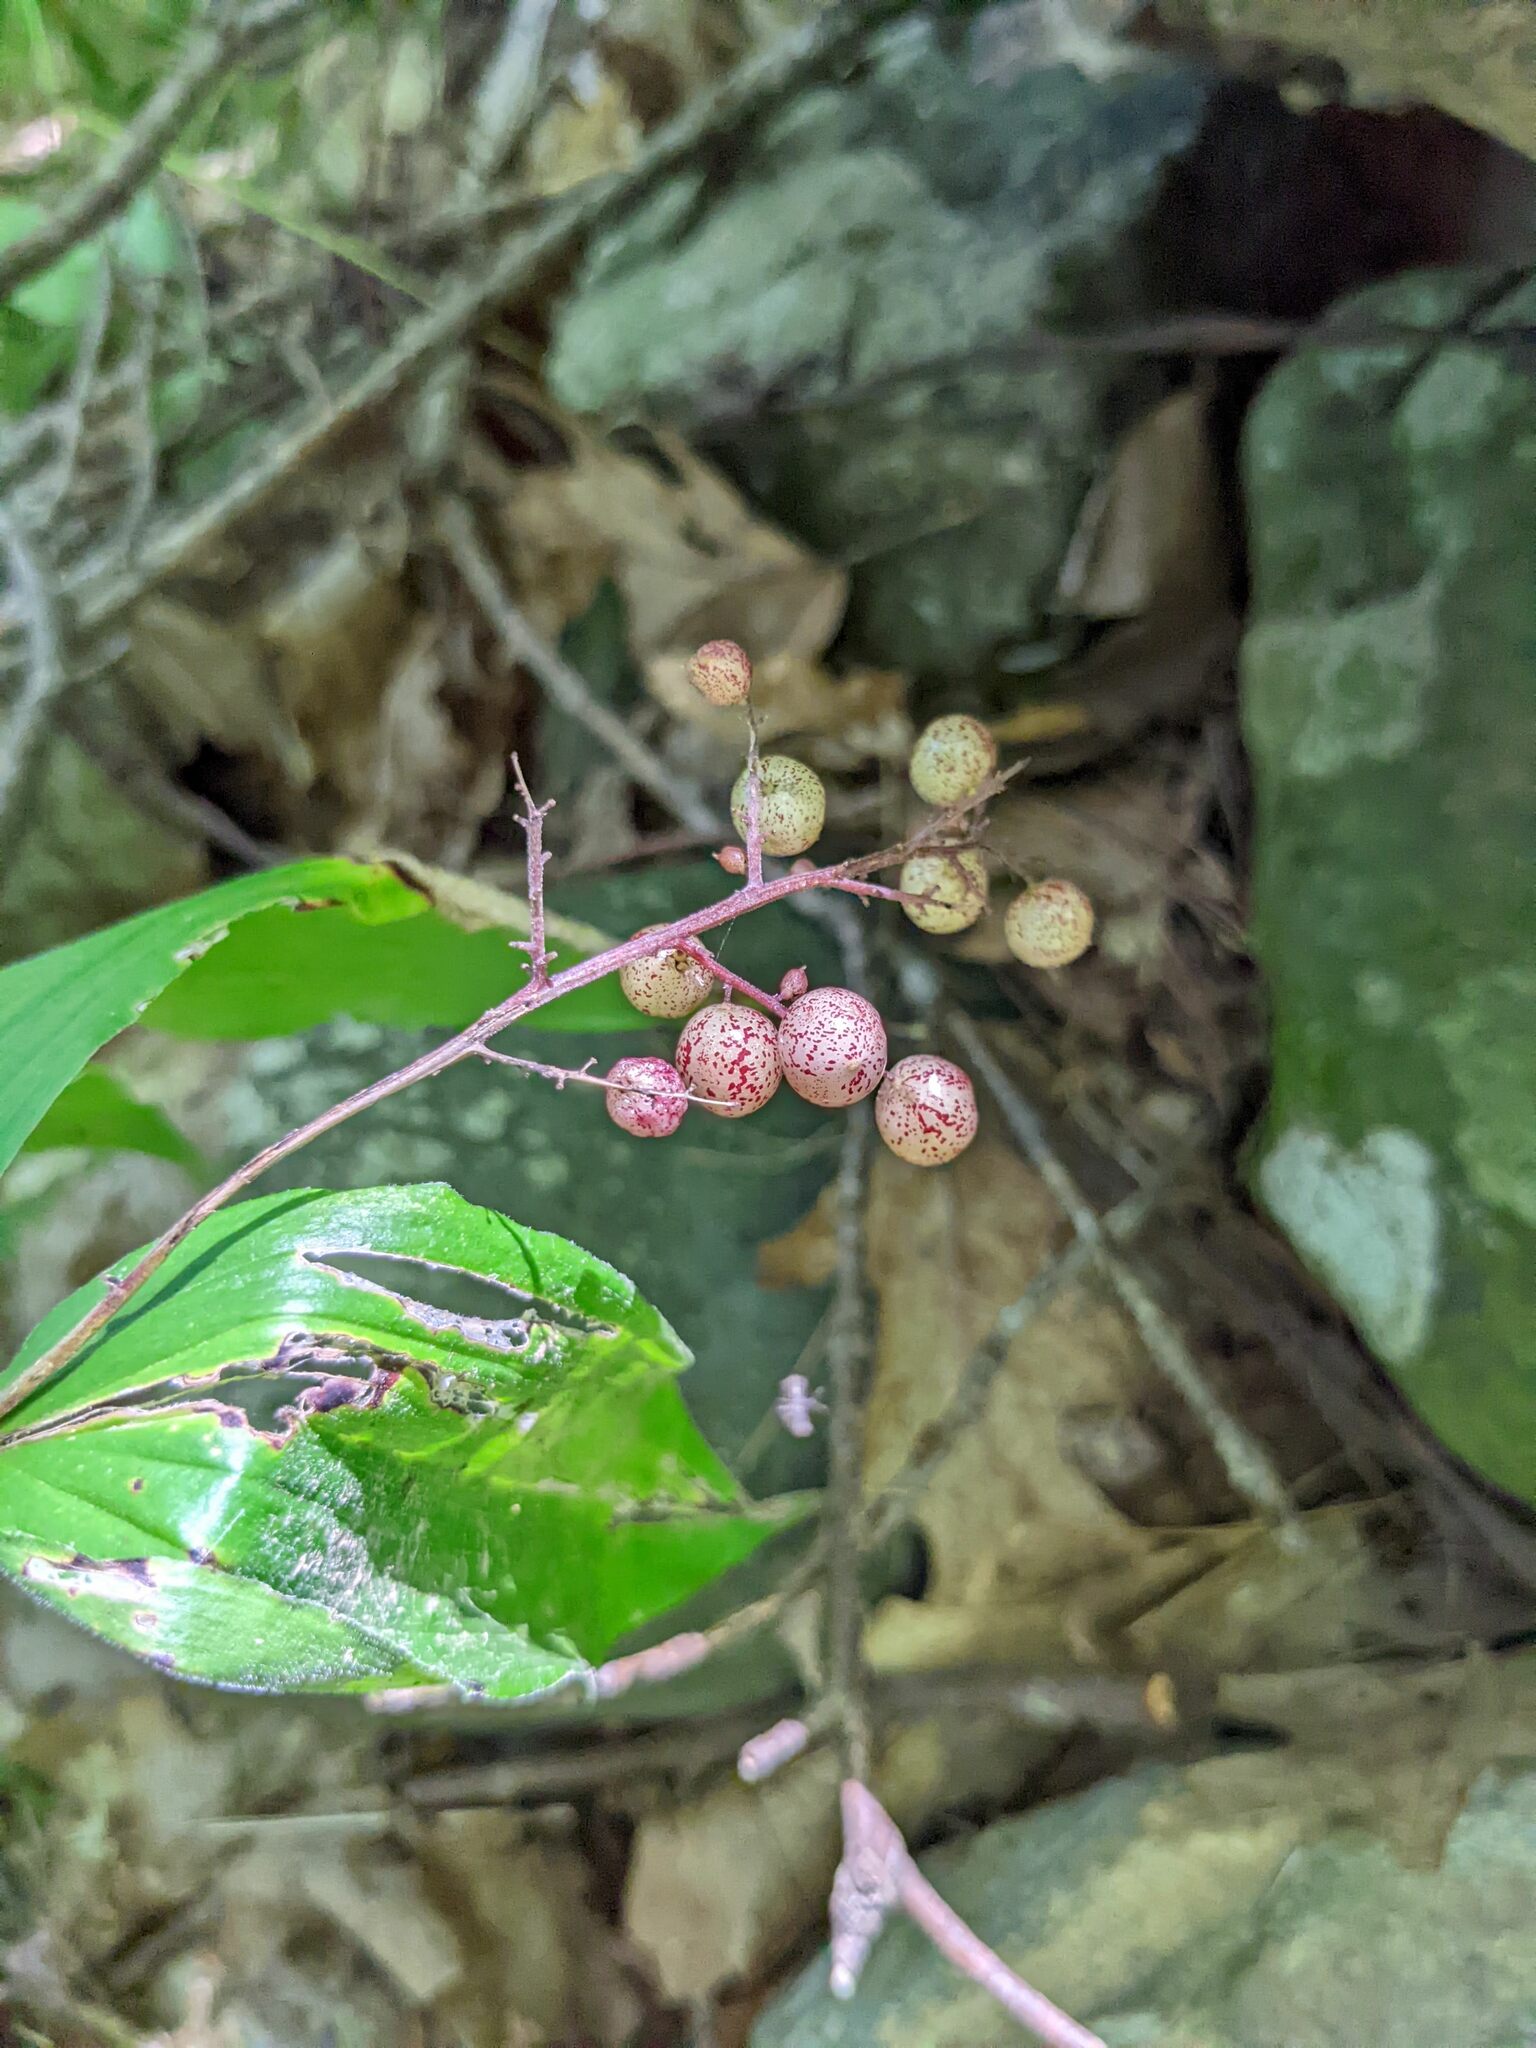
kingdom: Plantae
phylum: Tracheophyta
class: Liliopsida
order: Asparagales
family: Asparagaceae
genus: Maianthemum
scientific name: Maianthemum racemosum
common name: False spikenard
